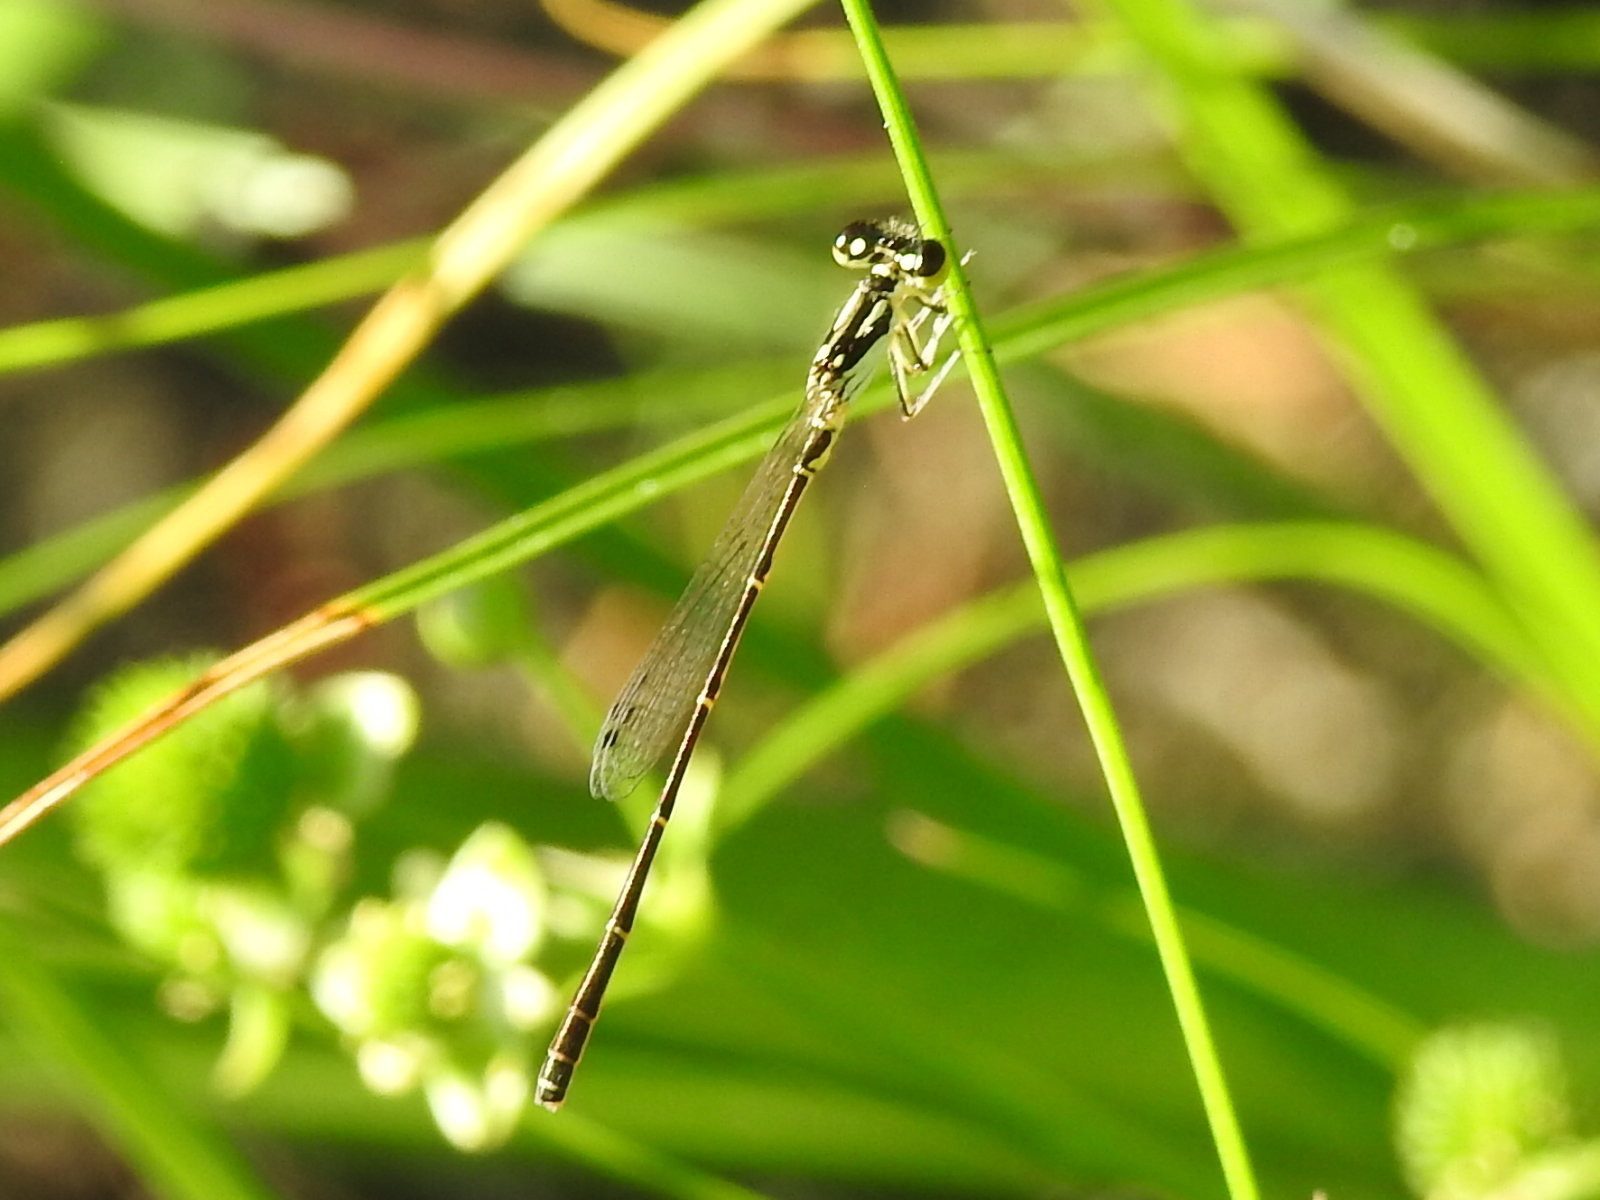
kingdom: Animalia
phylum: Arthropoda
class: Insecta
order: Odonata
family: Coenagrionidae
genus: Ischnura
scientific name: Ischnura posita
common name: Fragile forktail
